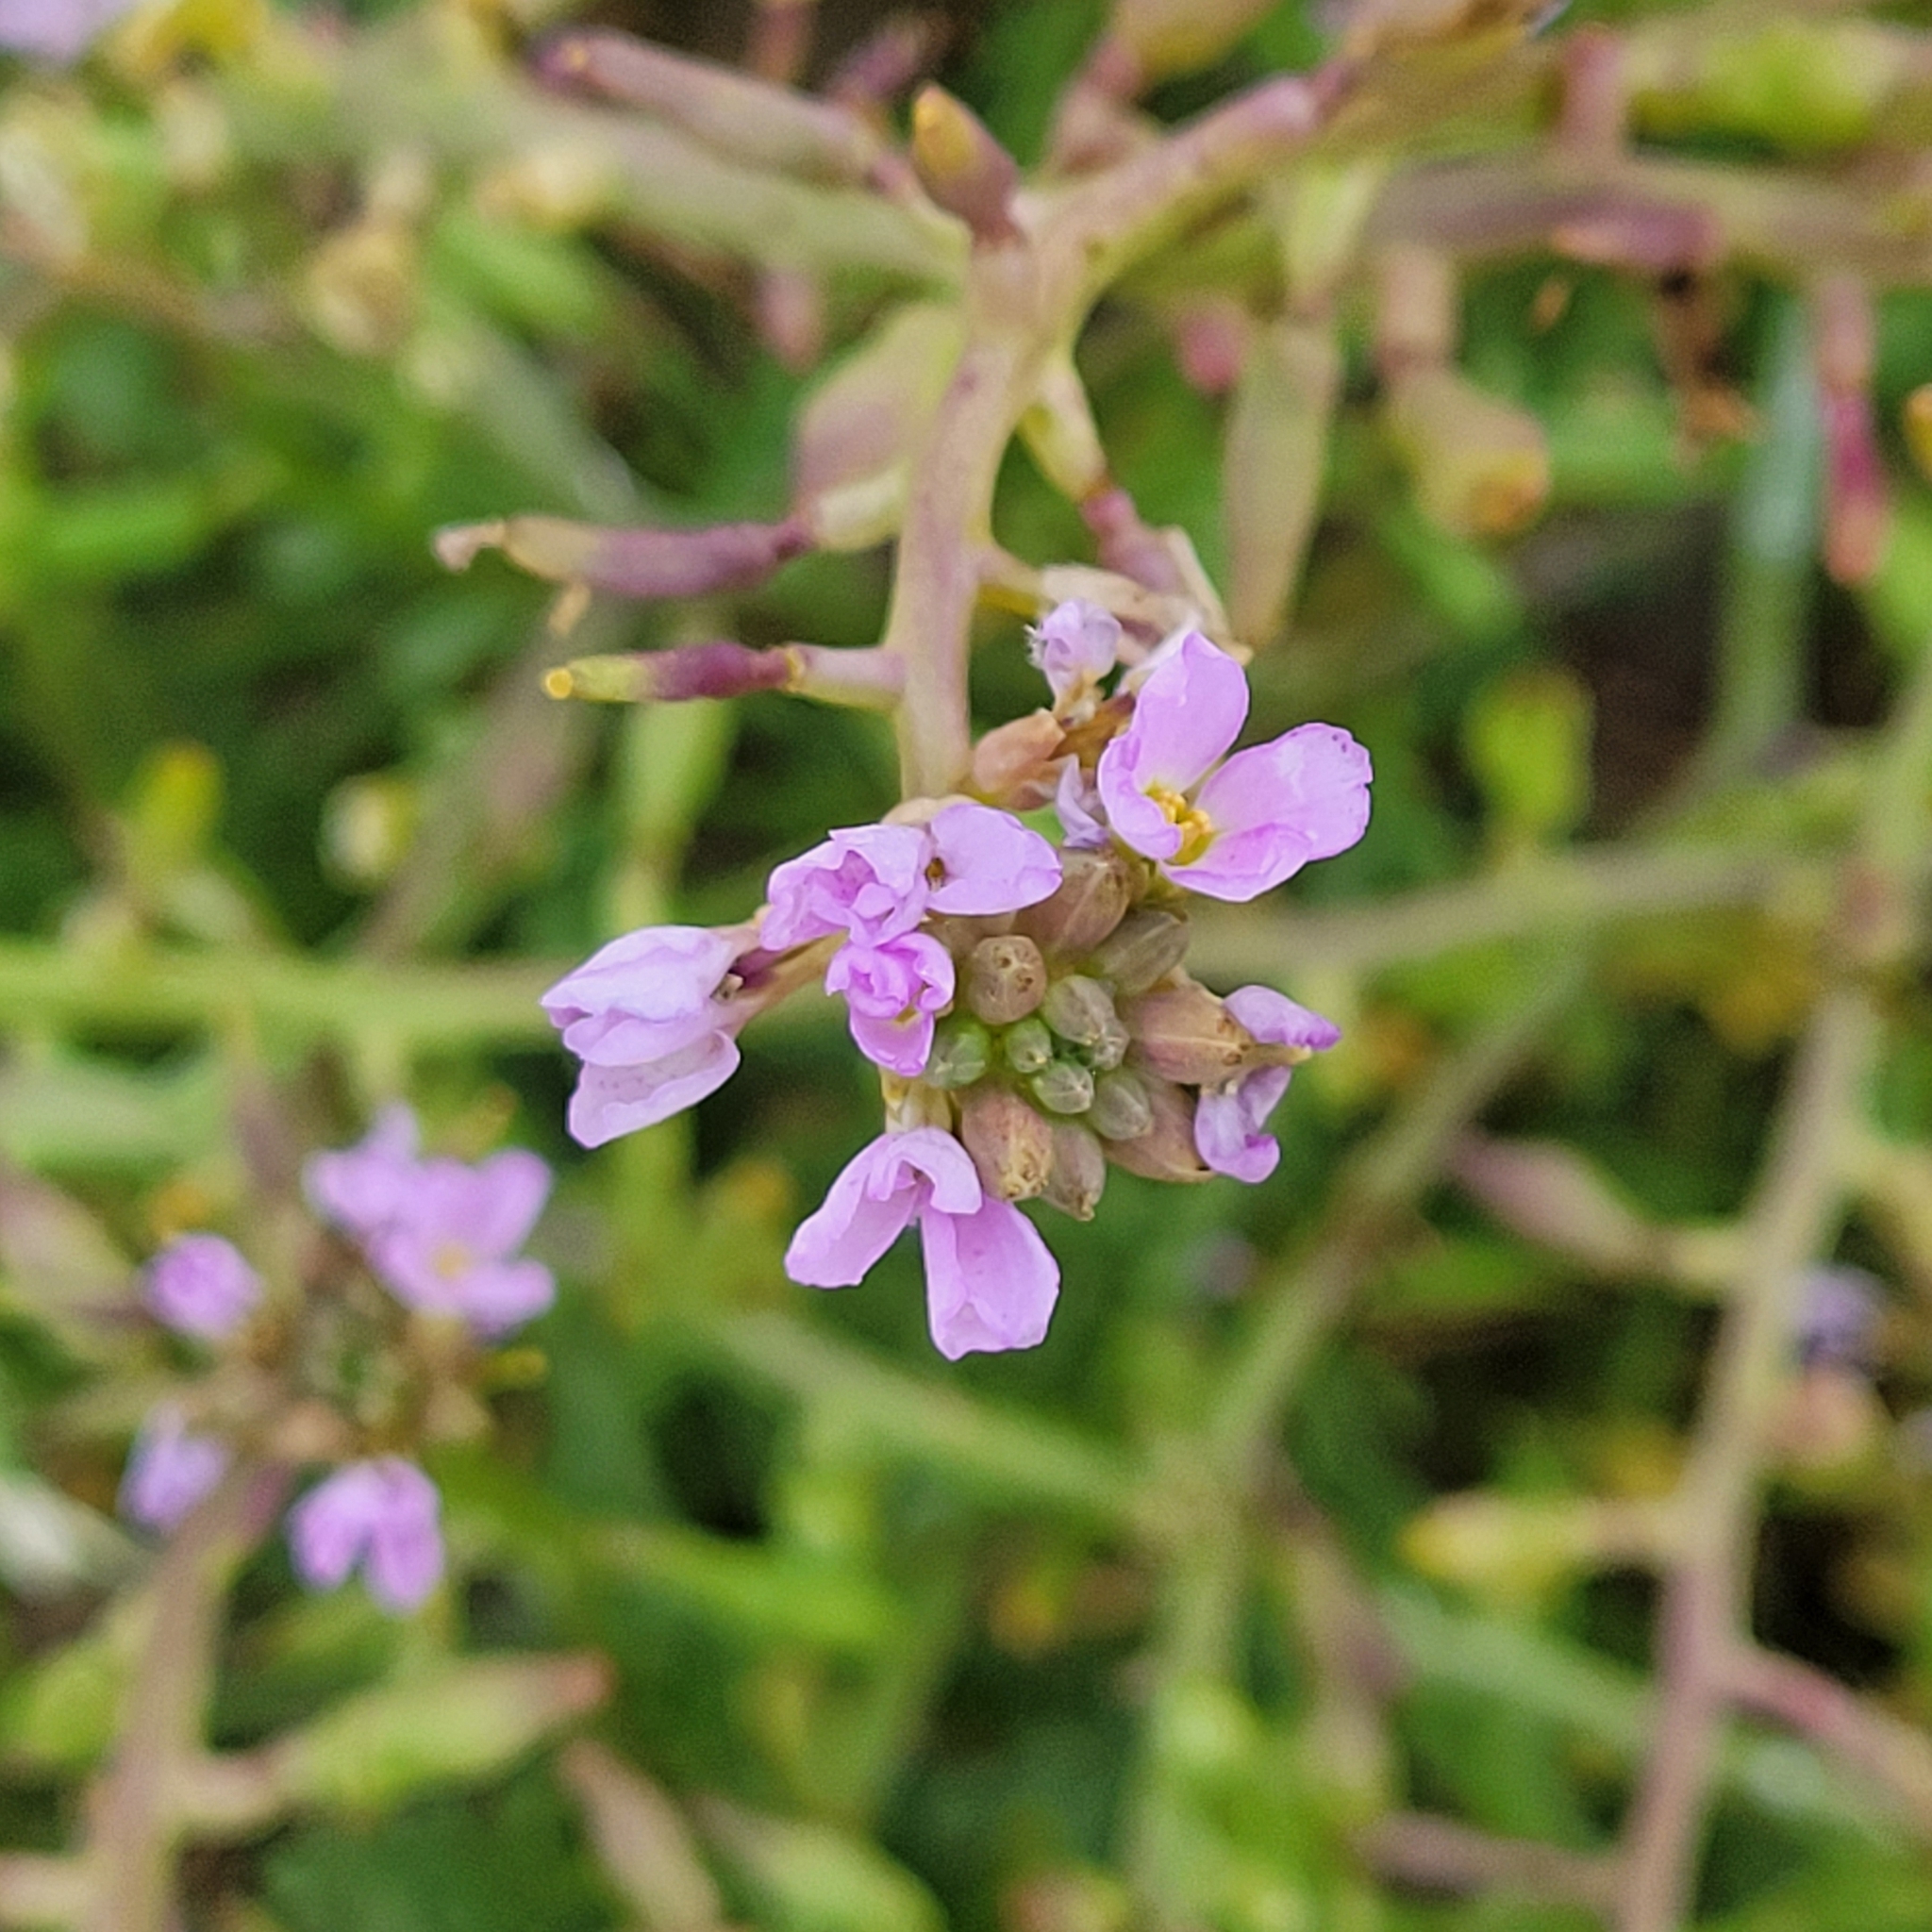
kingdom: Plantae
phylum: Tracheophyta
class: Magnoliopsida
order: Brassicales
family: Brassicaceae
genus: Cakile
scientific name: Cakile maritima
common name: Sea rocket
